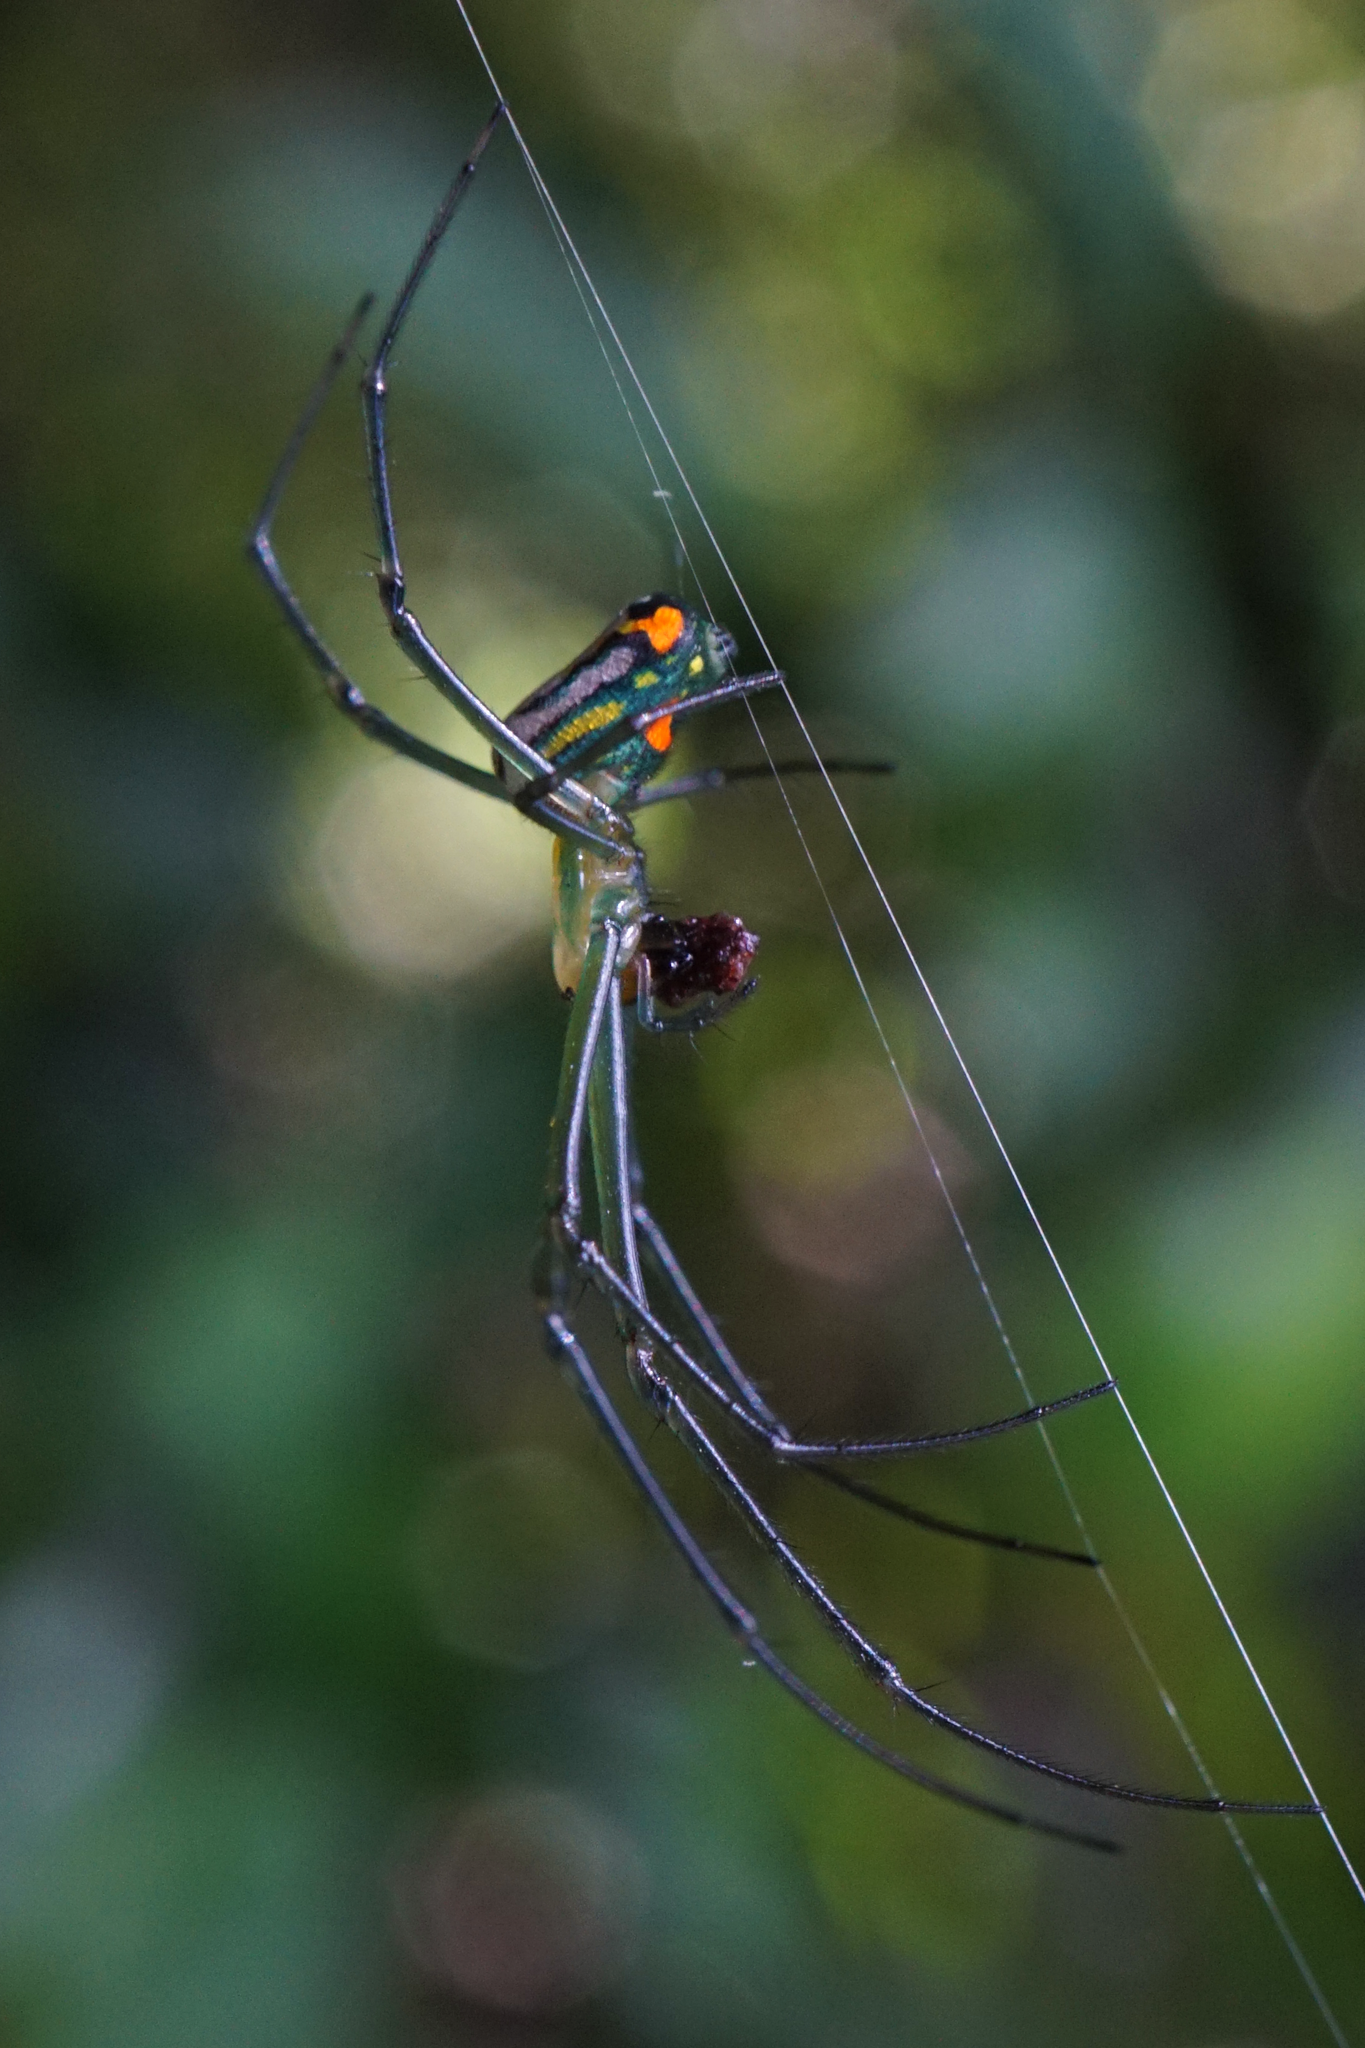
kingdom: Animalia
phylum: Arthropoda
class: Arachnida
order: Araneae
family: Tetragnathidae
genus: Leucauge
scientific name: Leucauge argyrobapta
